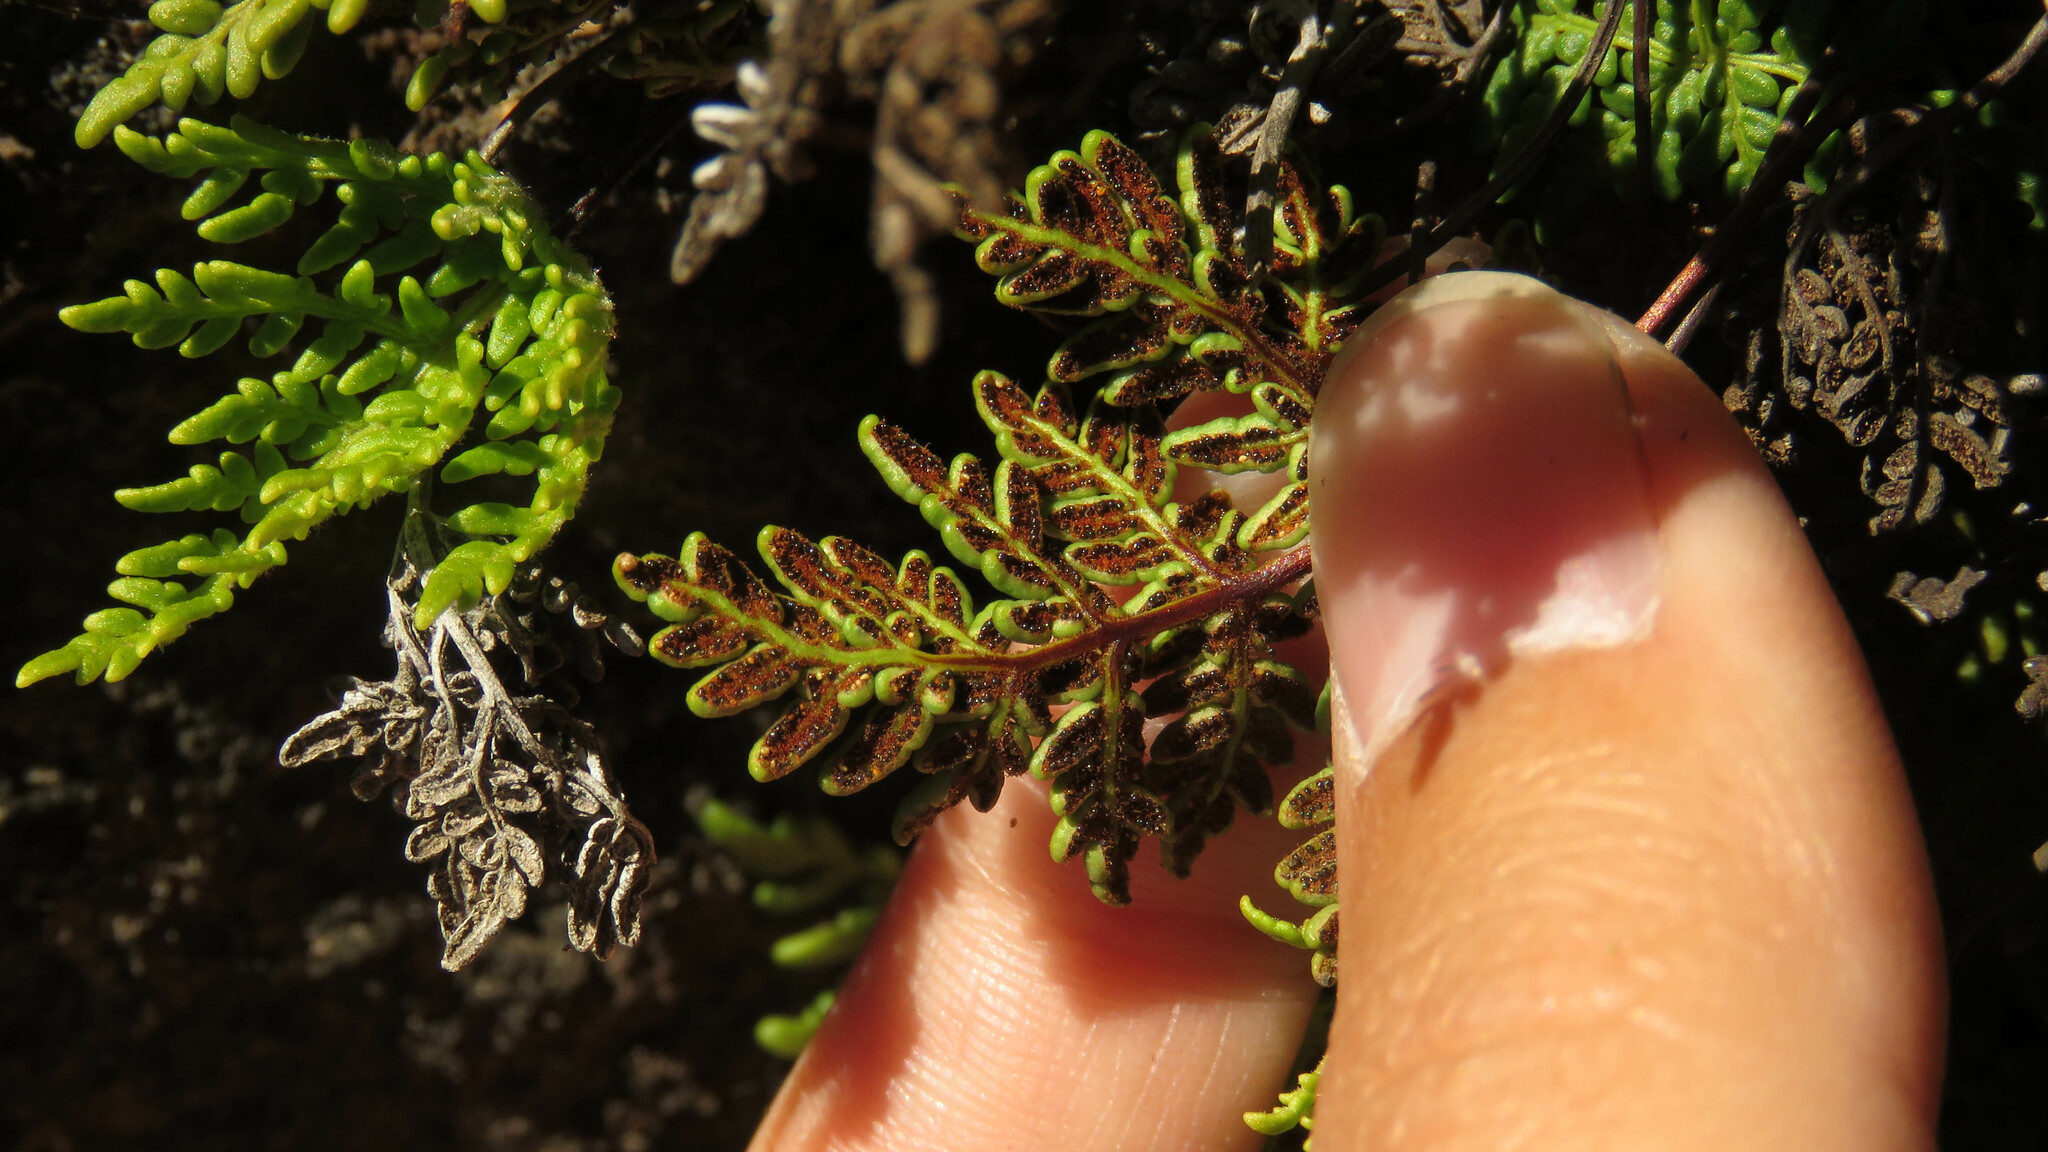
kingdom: Plantae
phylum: Tracheophyta
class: Polypodiopsida
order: Polypodiales
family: Pteridaceae
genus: Cheilanthes
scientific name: Cheilanthes glauca
